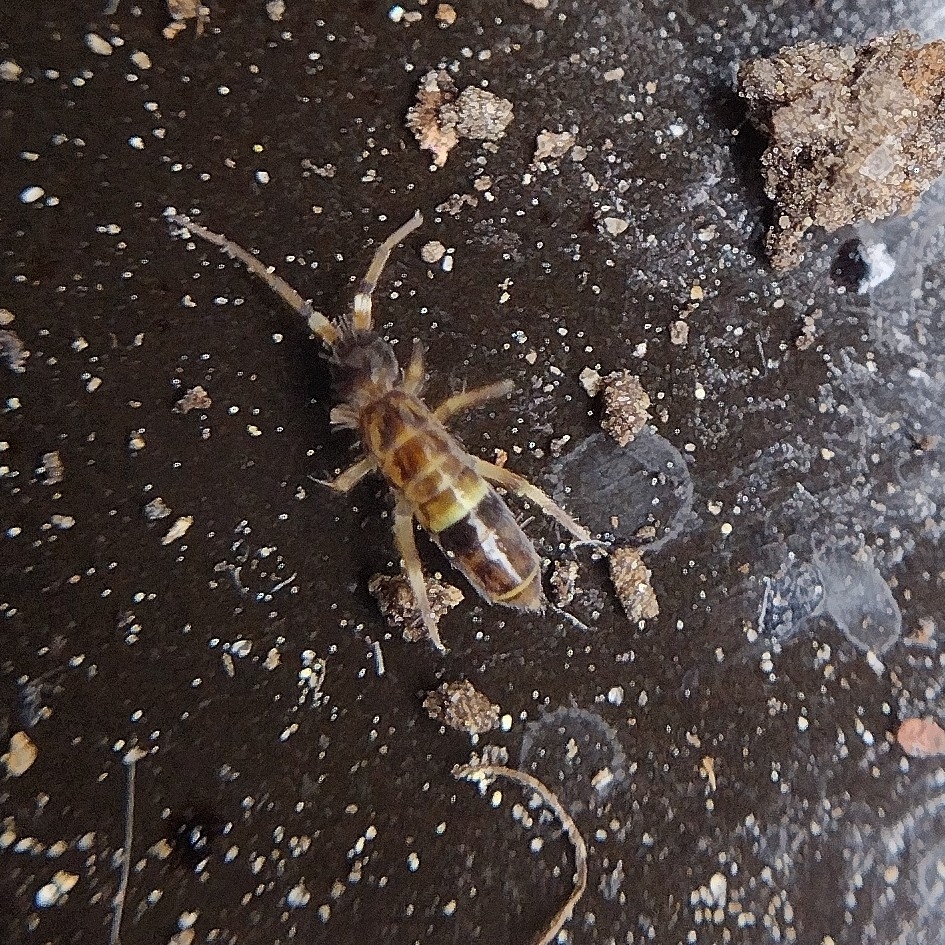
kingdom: Animalia
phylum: Arthropoda
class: Collembola
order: Entomobryomorpha
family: Orchesellidae
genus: Orchesella
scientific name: Orchesella cincta
